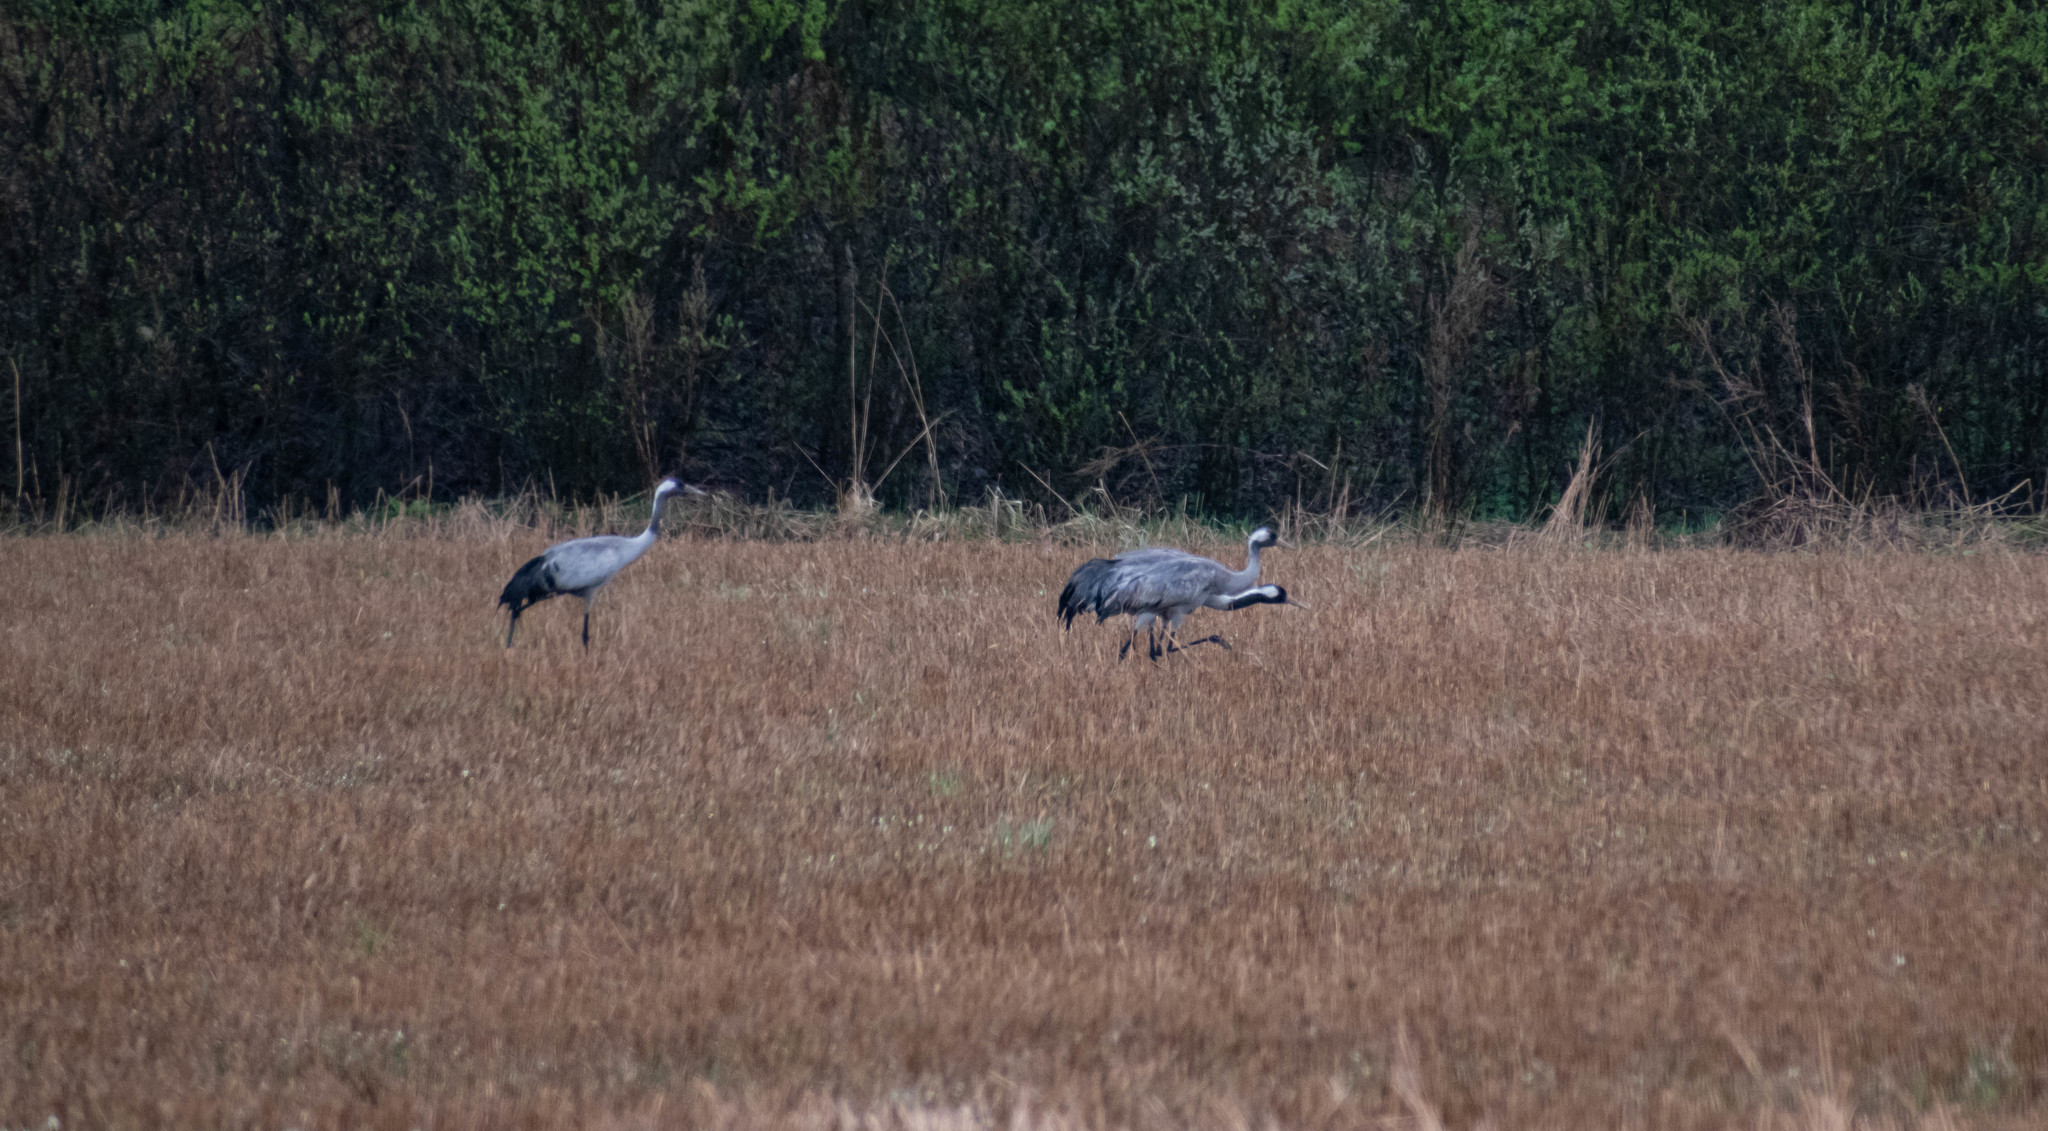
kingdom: Animalia
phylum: Chordata
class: Aves
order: Gruiformes
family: Gruidae
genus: Grus
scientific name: Grus grus
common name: Common crane
